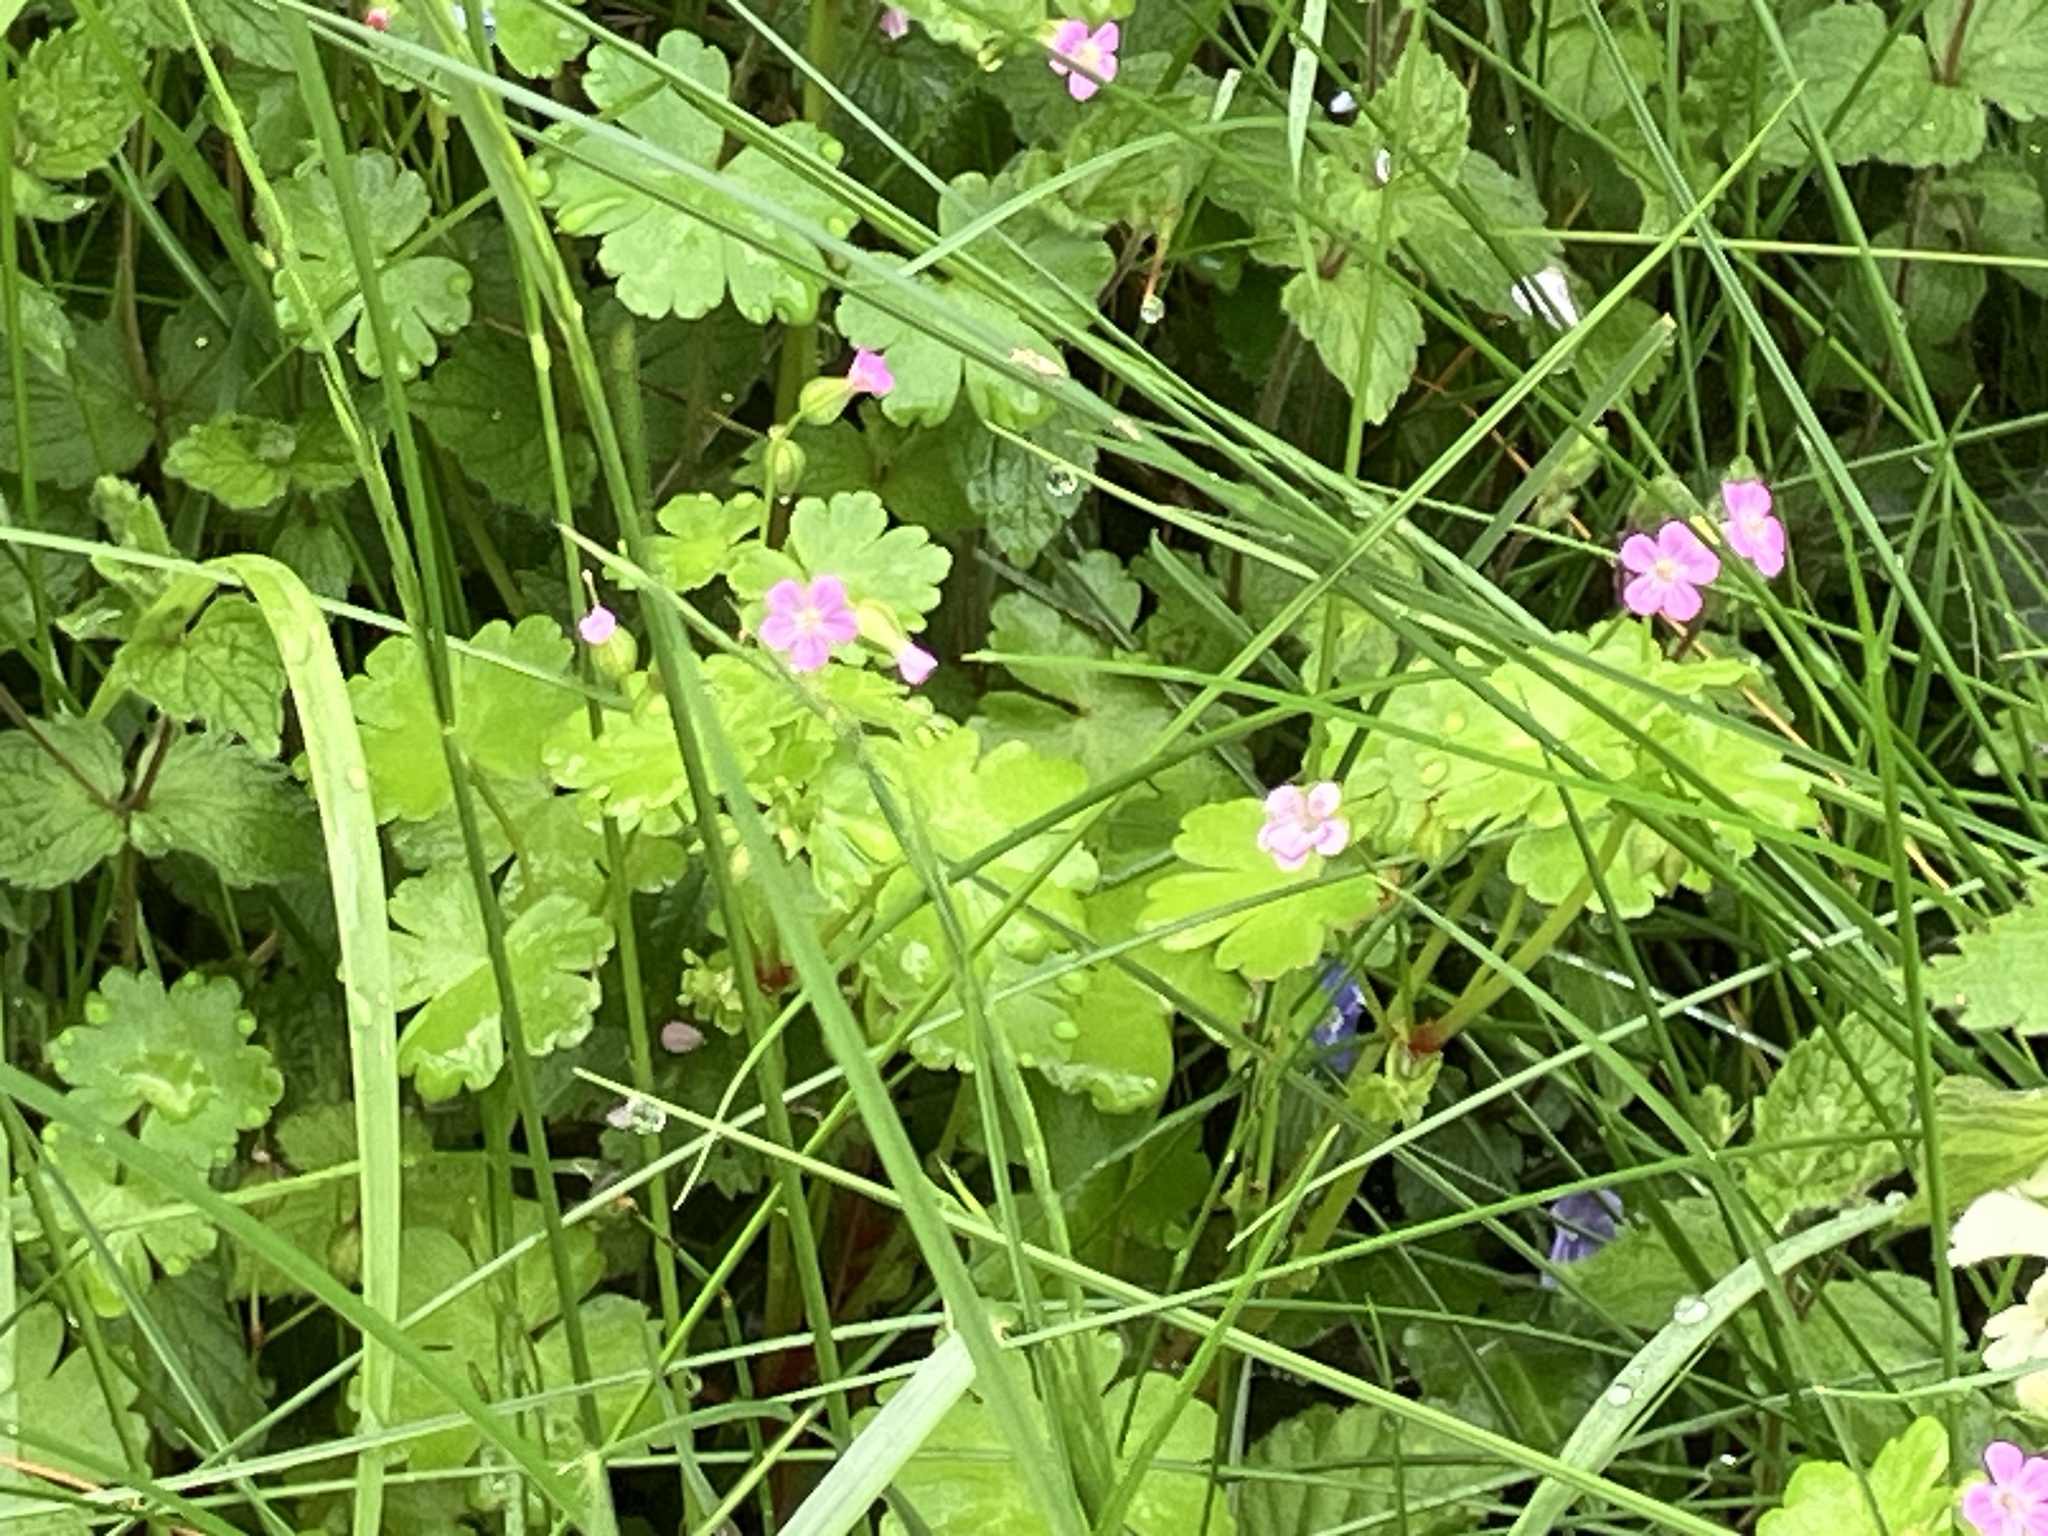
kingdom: Plantae
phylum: Tracheophyta
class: Magnoliopsida
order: Geraniales
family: Geraniaceae
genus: Geranium
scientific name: Geranium lucidum
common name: Shining crane's-bill
